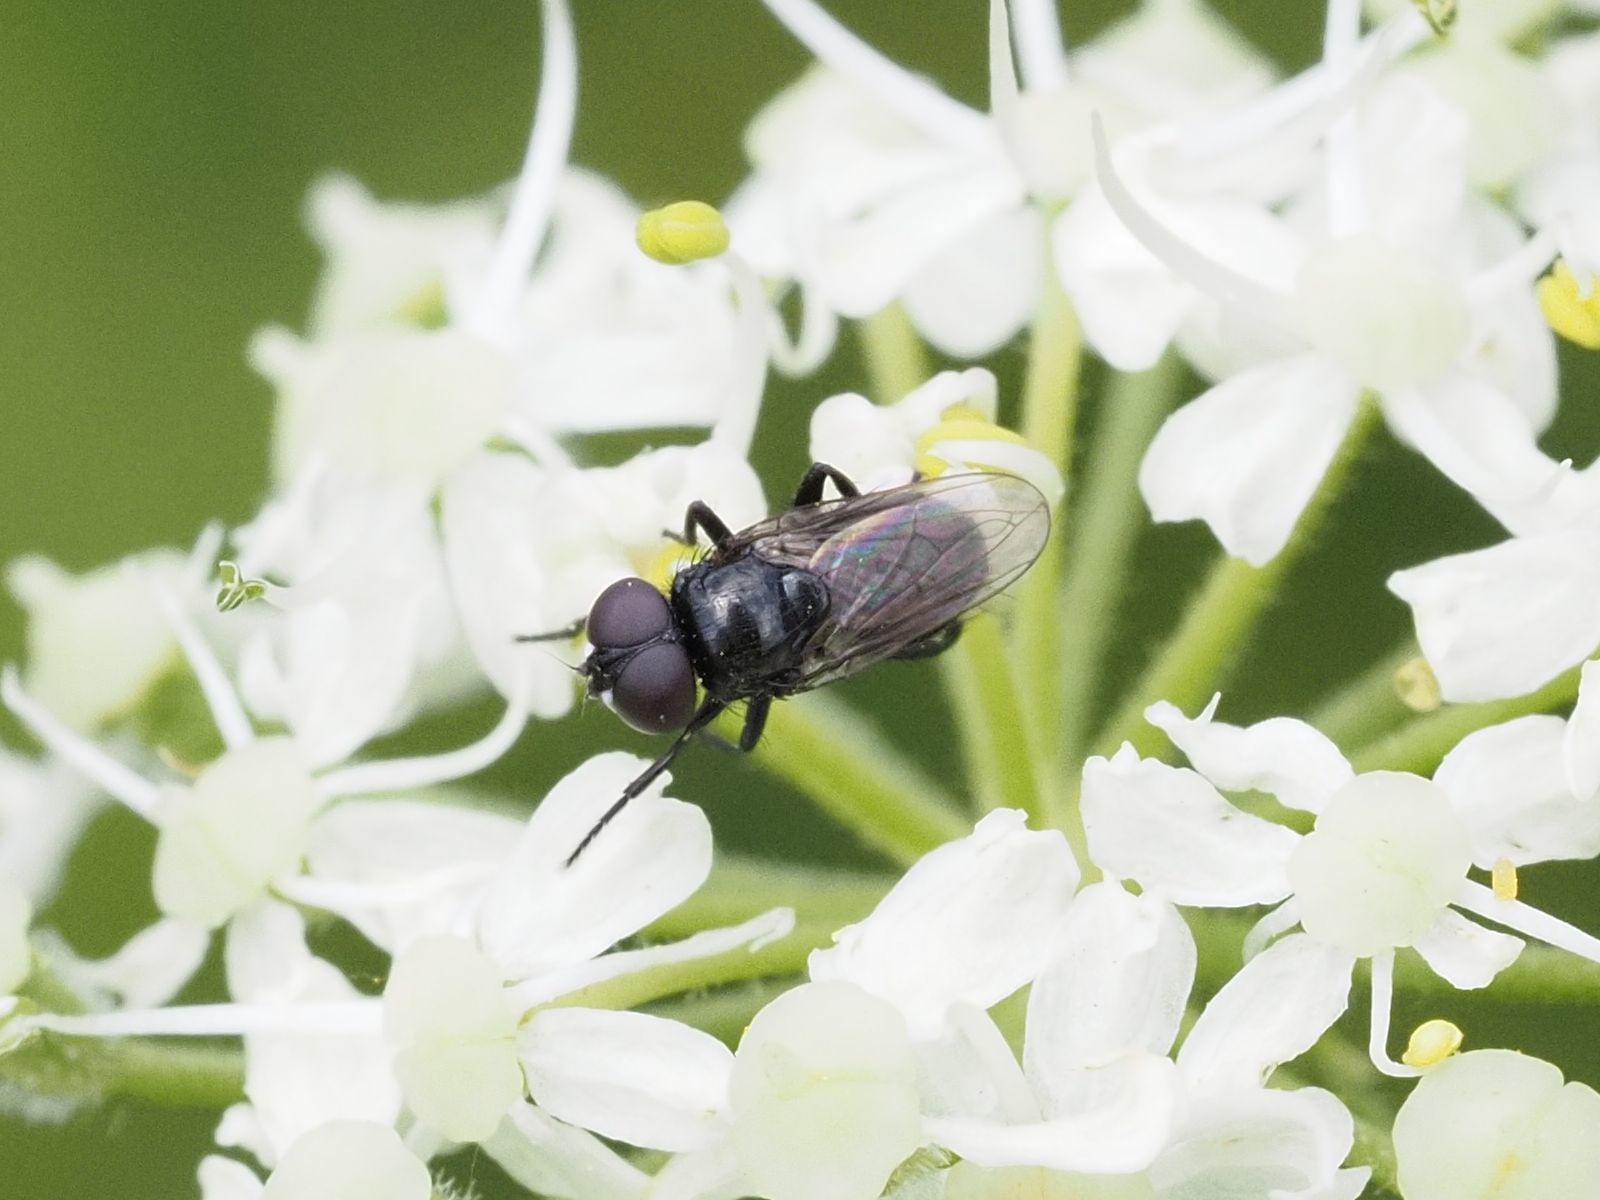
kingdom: Animalia
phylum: Arthropoda
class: Insecta
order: Diptera
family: Tachinidae
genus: Litophasia
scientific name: Litophasia hyalipennis
